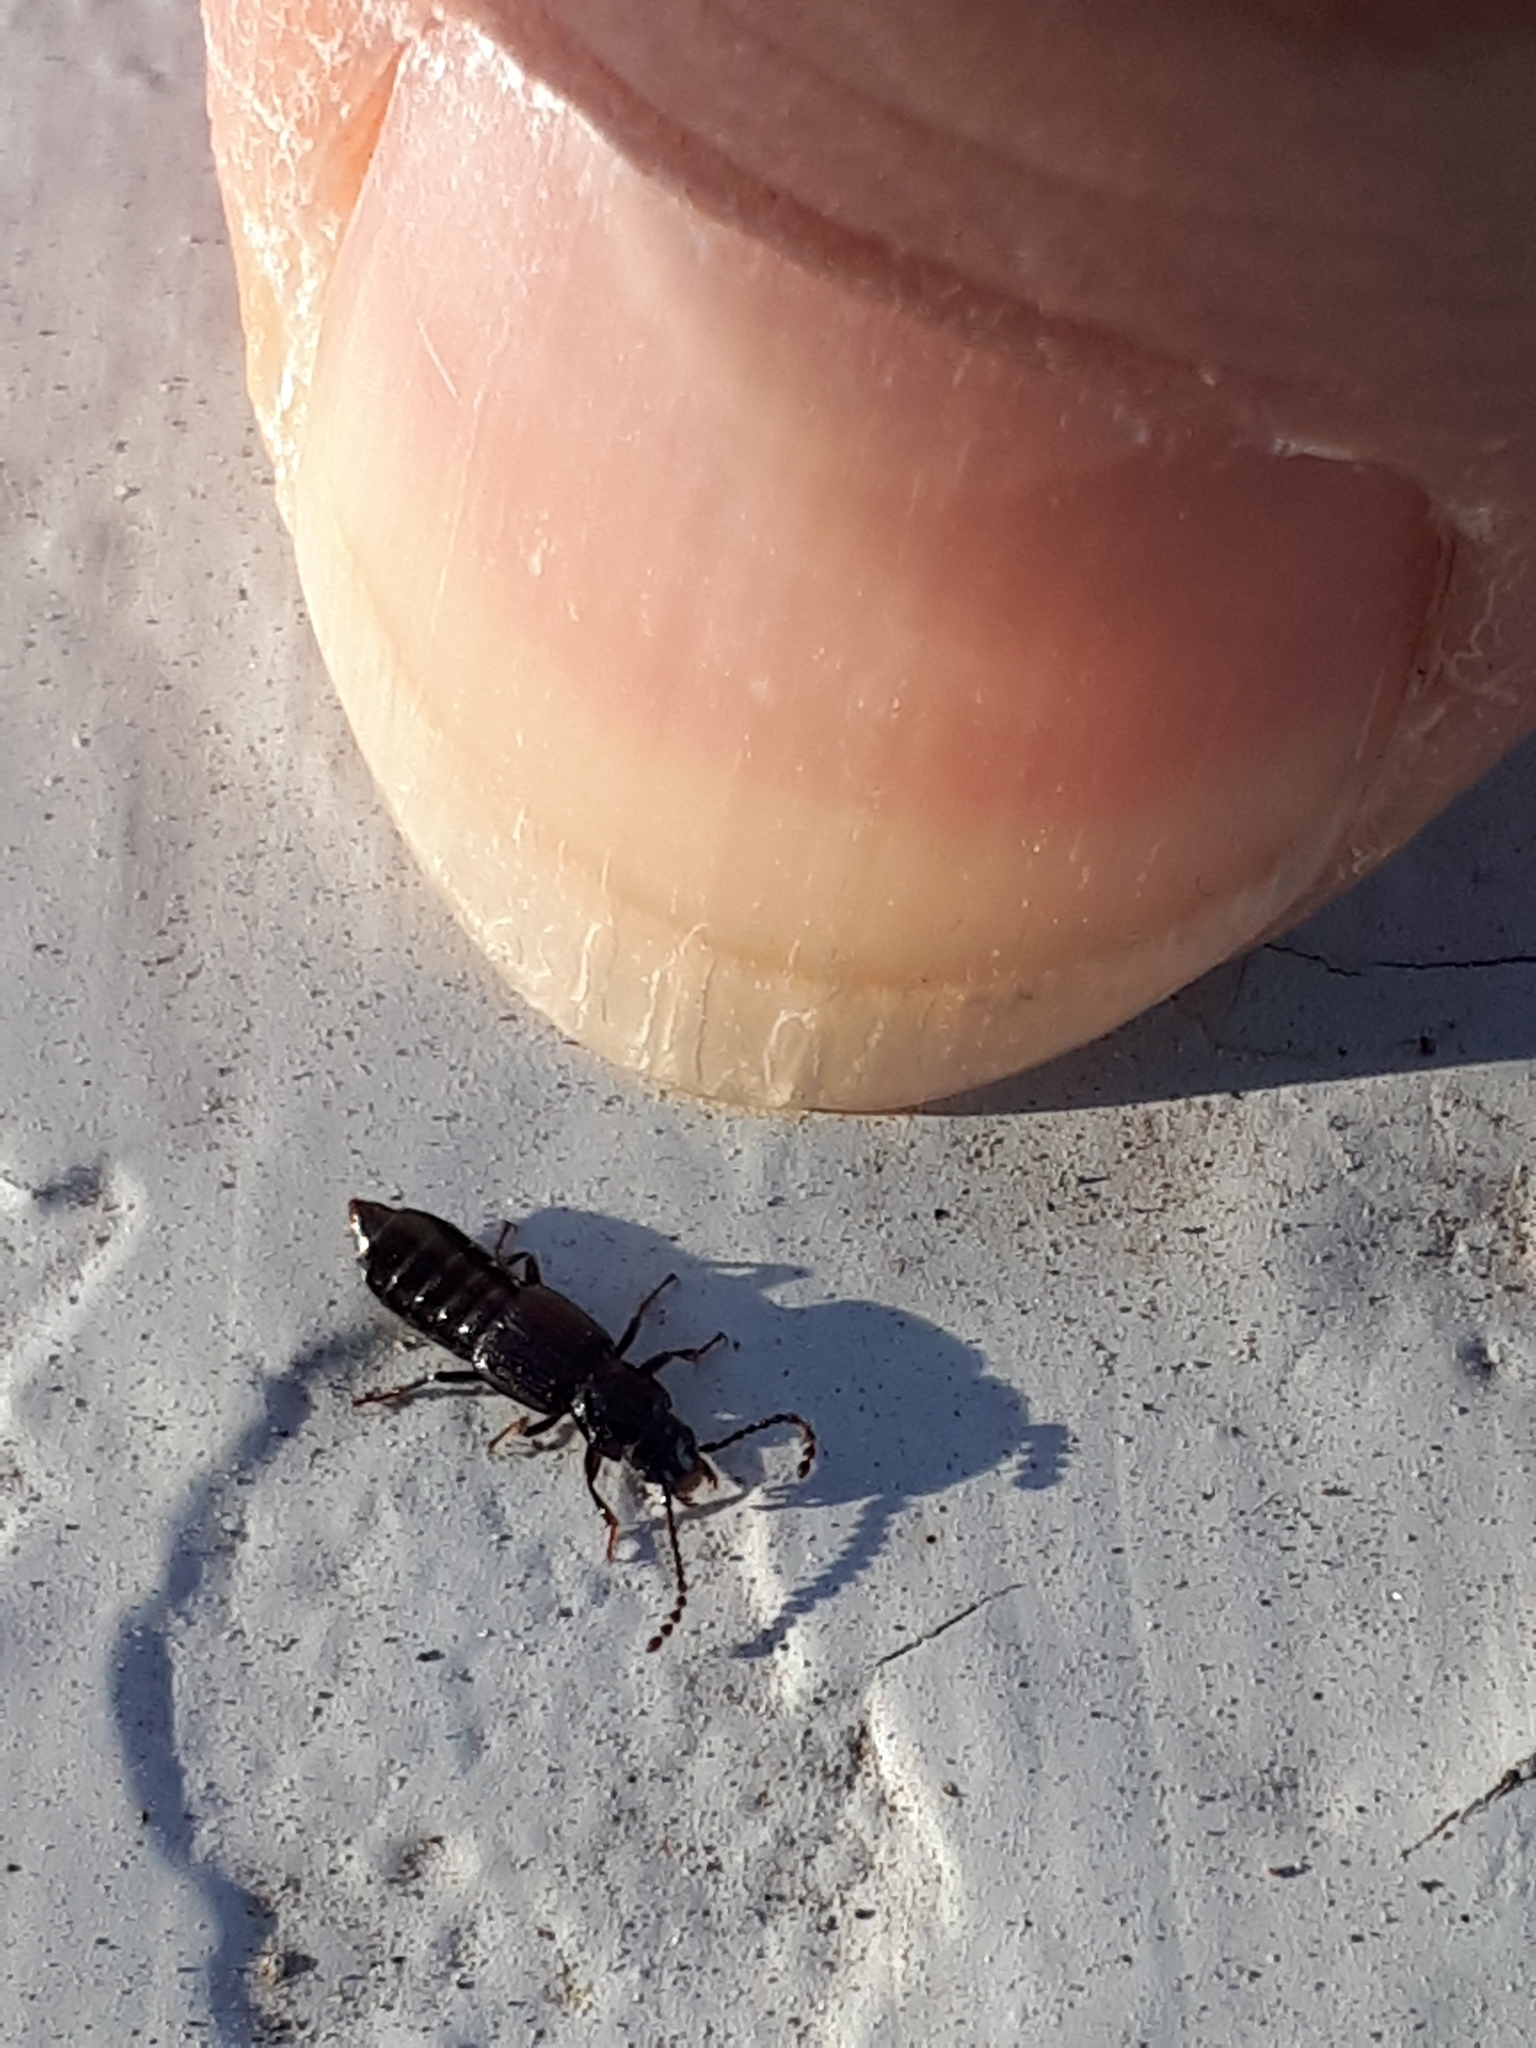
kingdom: Animalia
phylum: Arthropoda
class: Insecta
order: Coleoptera
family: Staphylinidae
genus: Coprophilus
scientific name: Coprophilus striatulus
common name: Rove beetle
